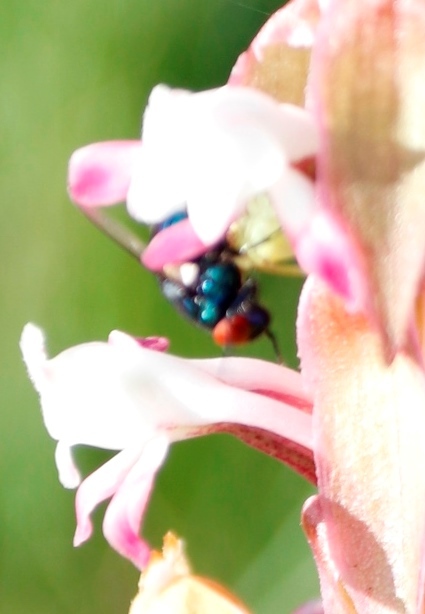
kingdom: Plantae
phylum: Tracheophyta
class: Liliopsida
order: Asparagales
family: Orchidaceae
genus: Satyrium
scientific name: Satyrium longicauda
